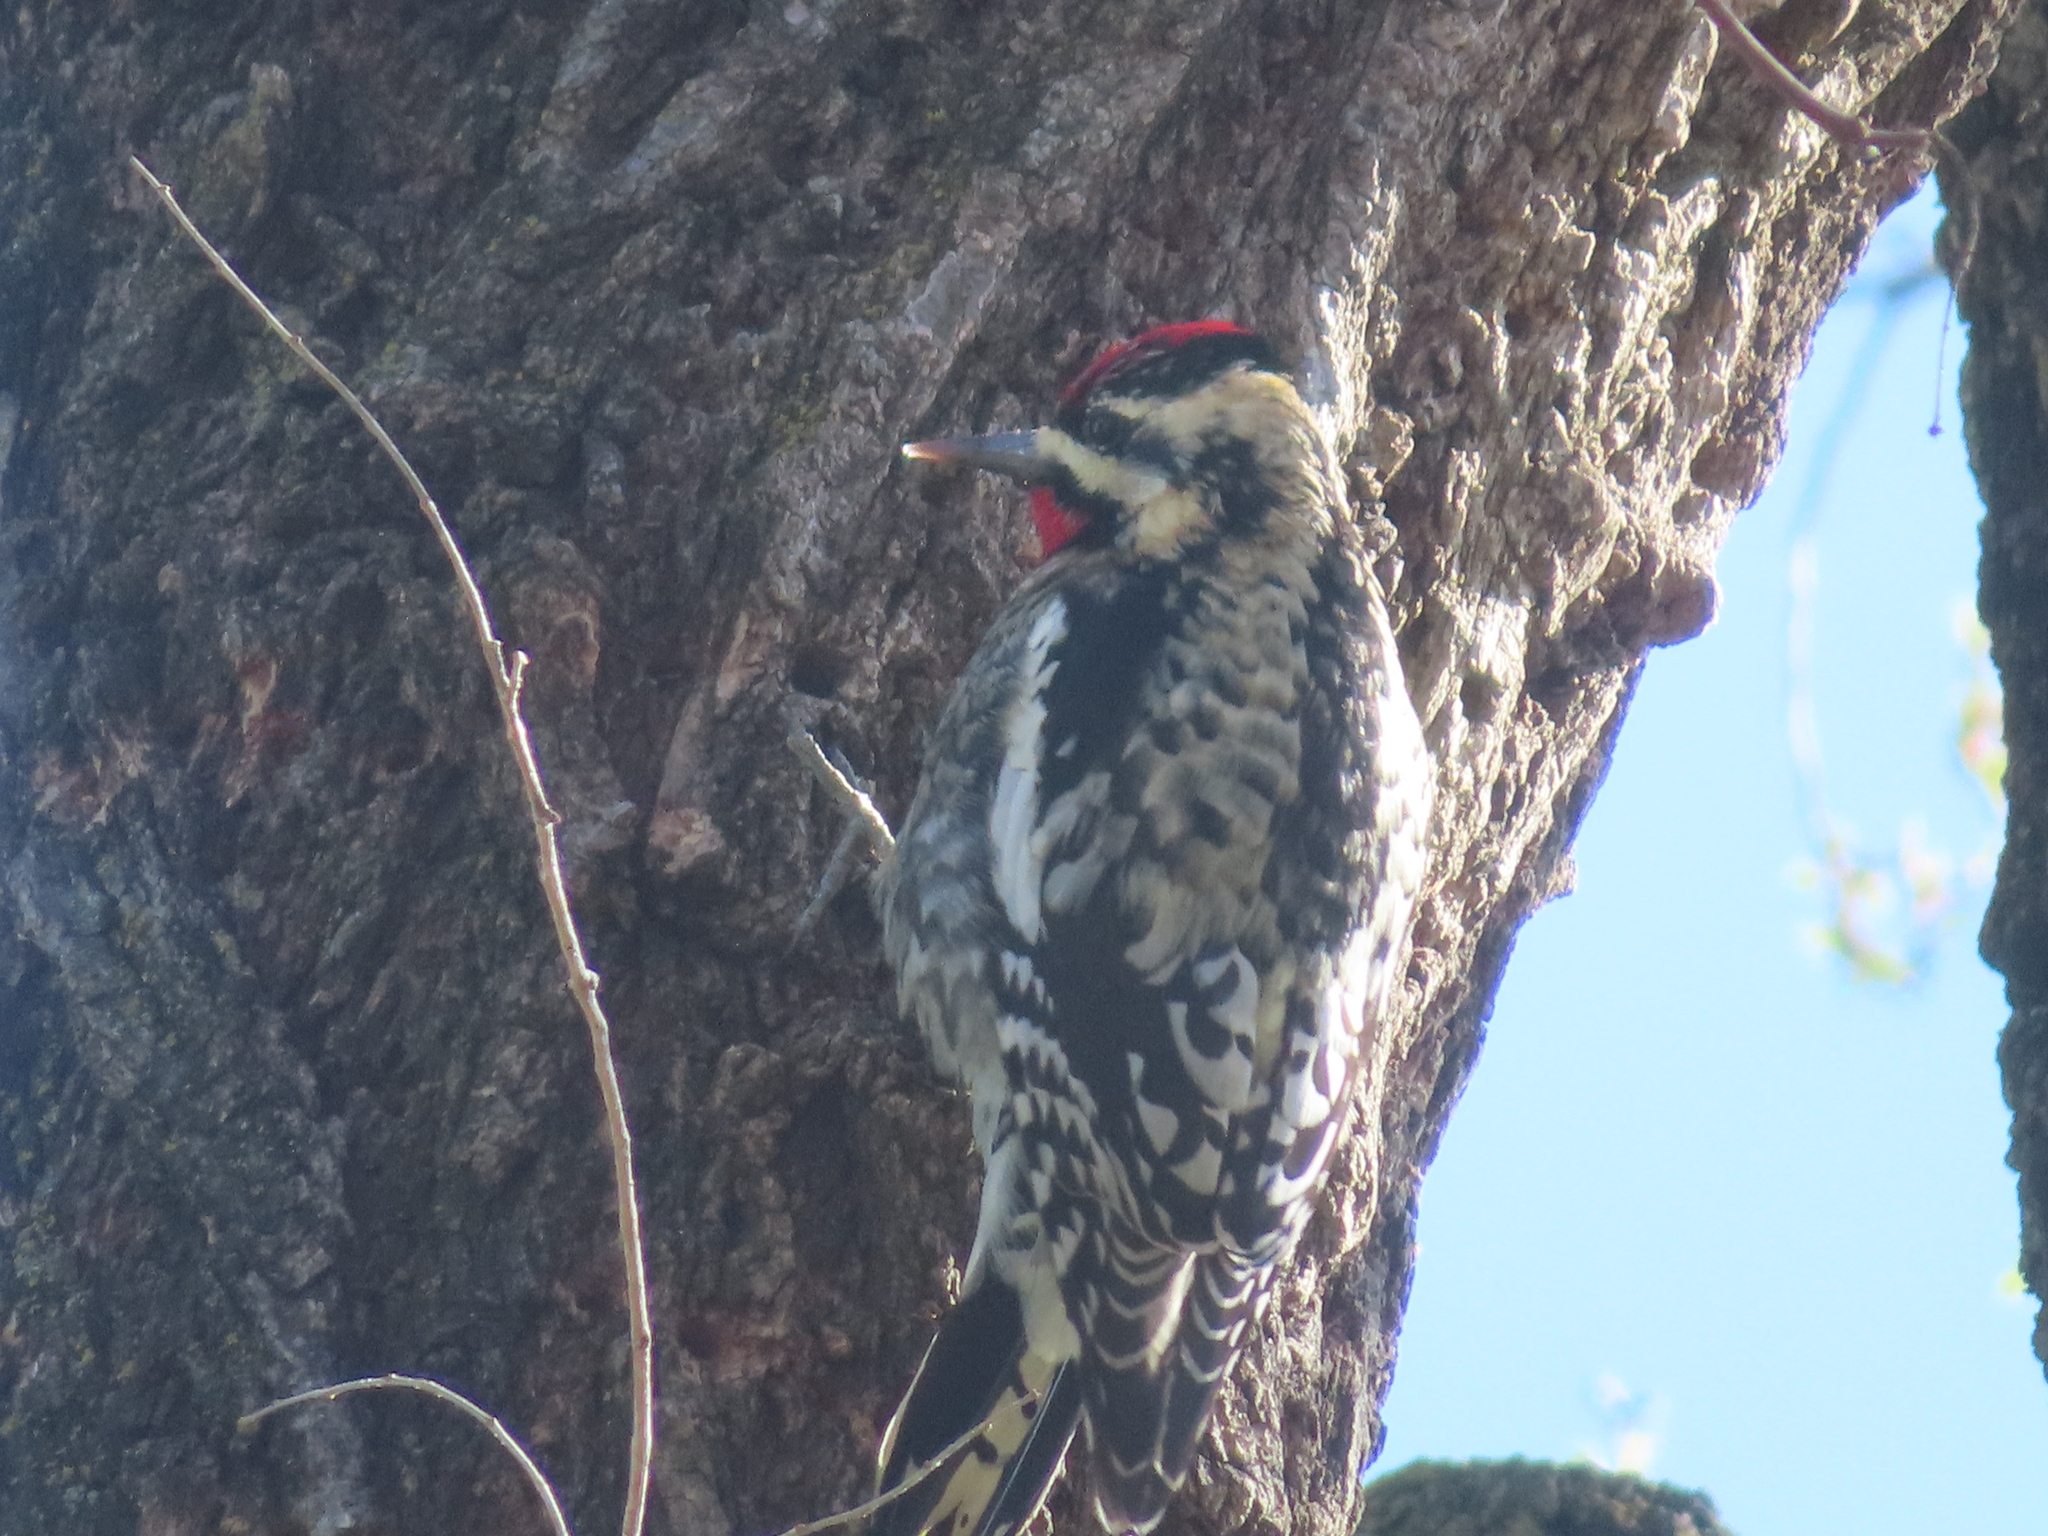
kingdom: Animalia
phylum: Chordata
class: Aves
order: Piciformes
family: Picidae
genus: Sphyrapicus
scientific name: Sphyrapicus varius
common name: Yellow-bellied sapsucker
